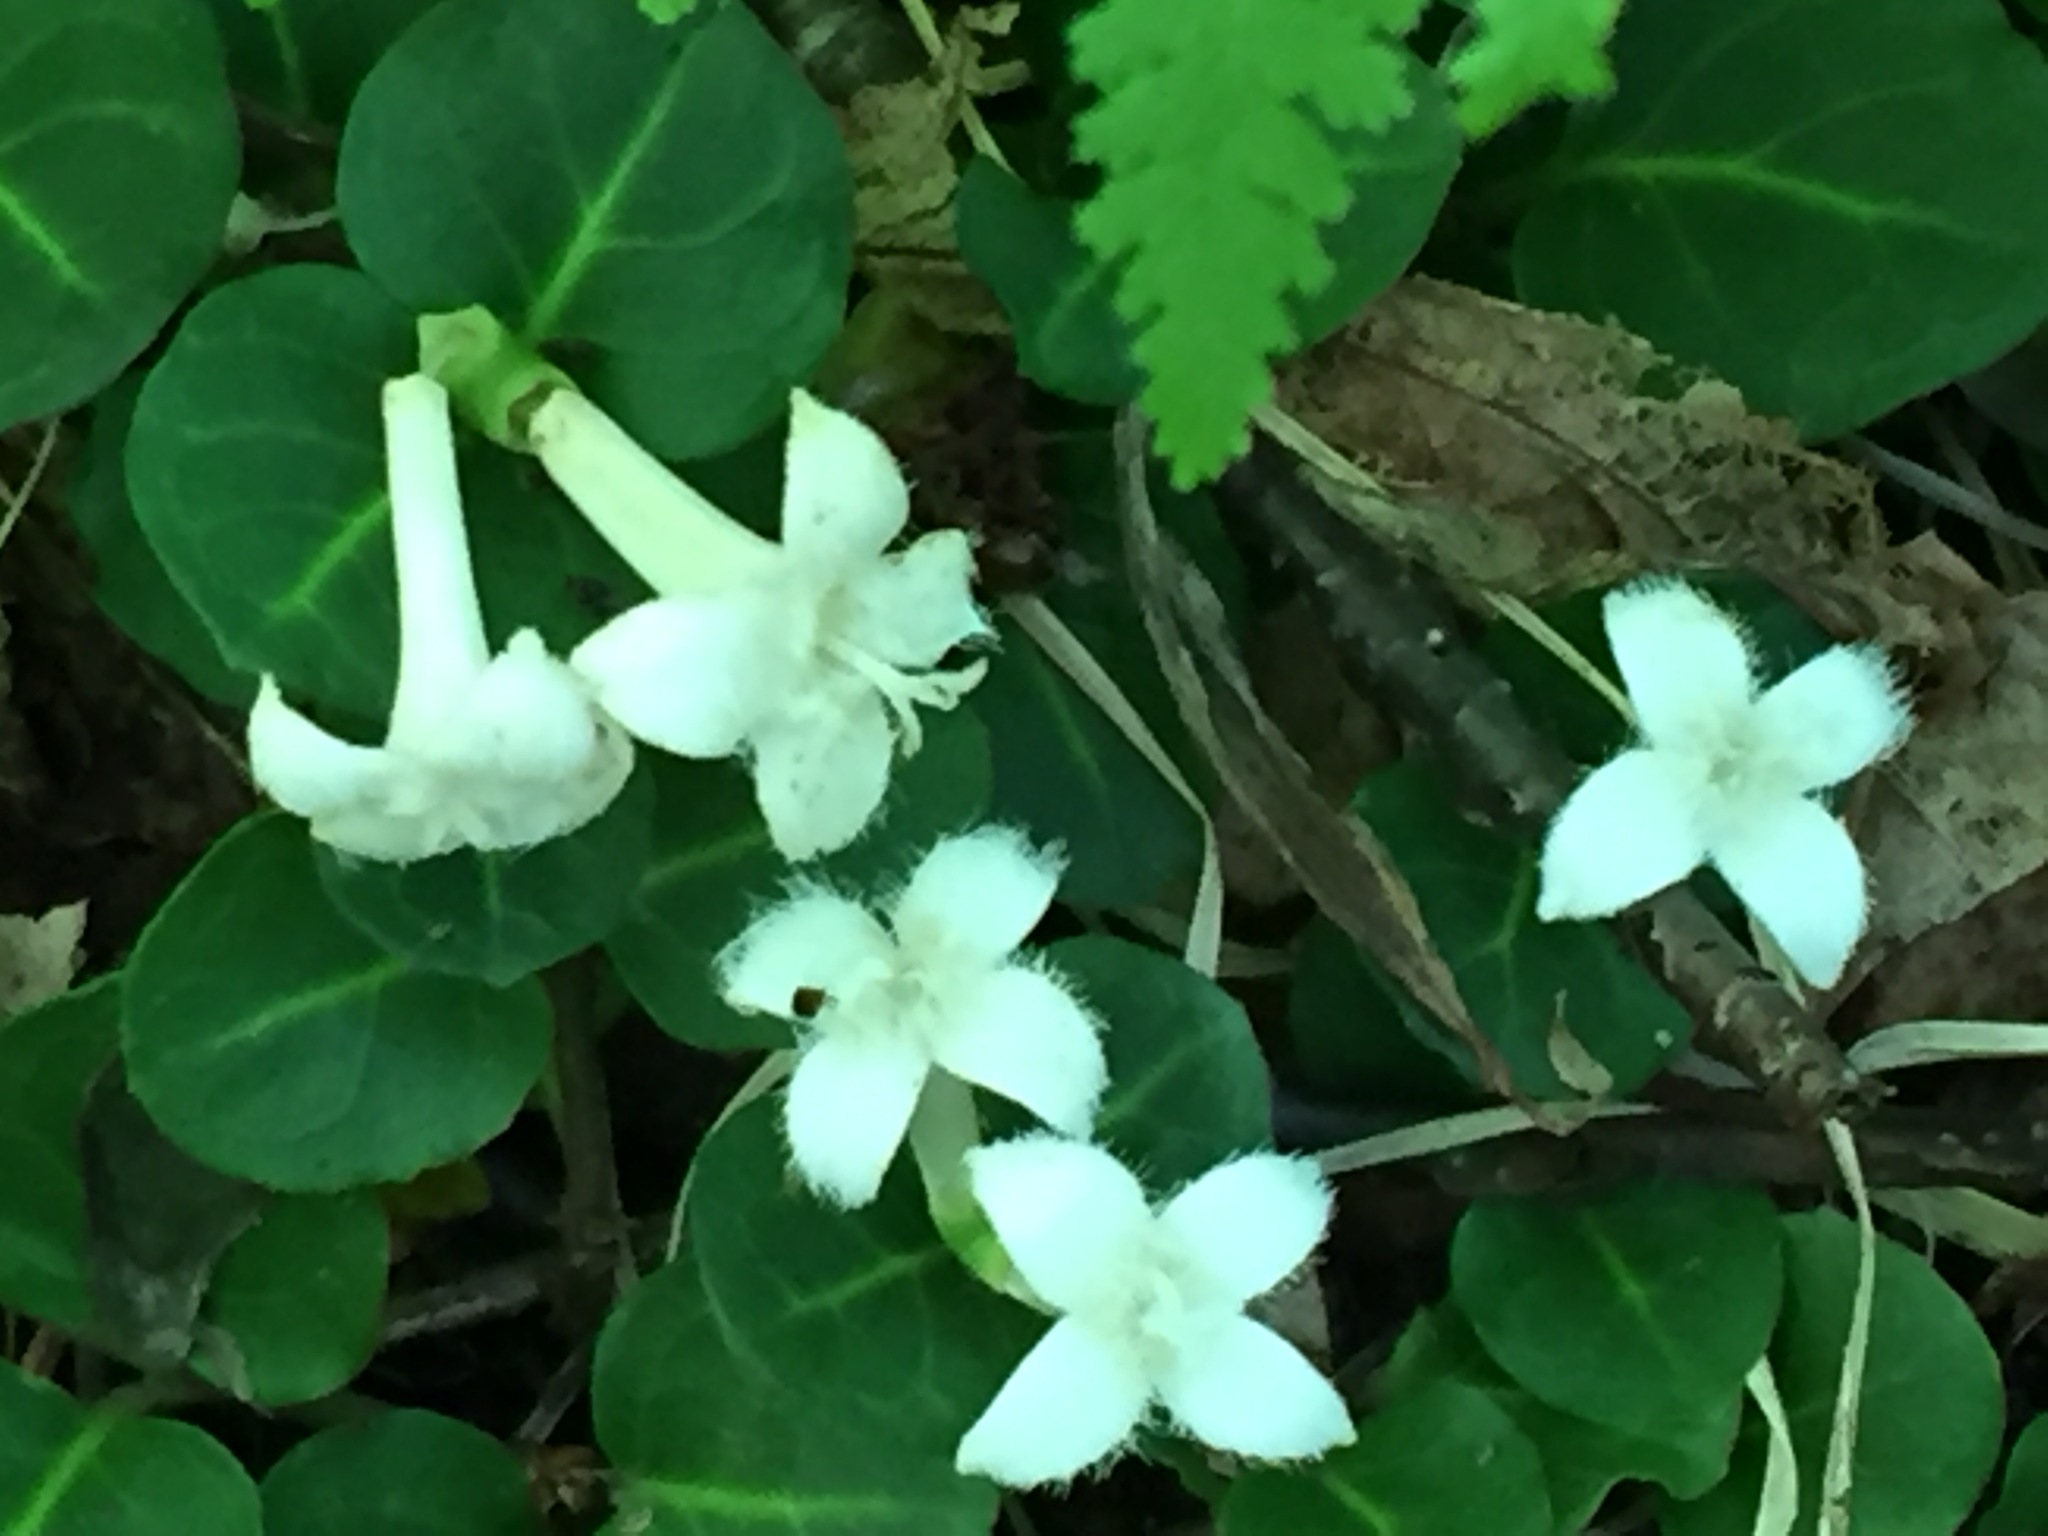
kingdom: Plantae
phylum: Tracheophyta
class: Magnoliopsida
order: Gentianales
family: Rubiaceae
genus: Mitchella
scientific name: Mitchella repens
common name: Partridge-berry
